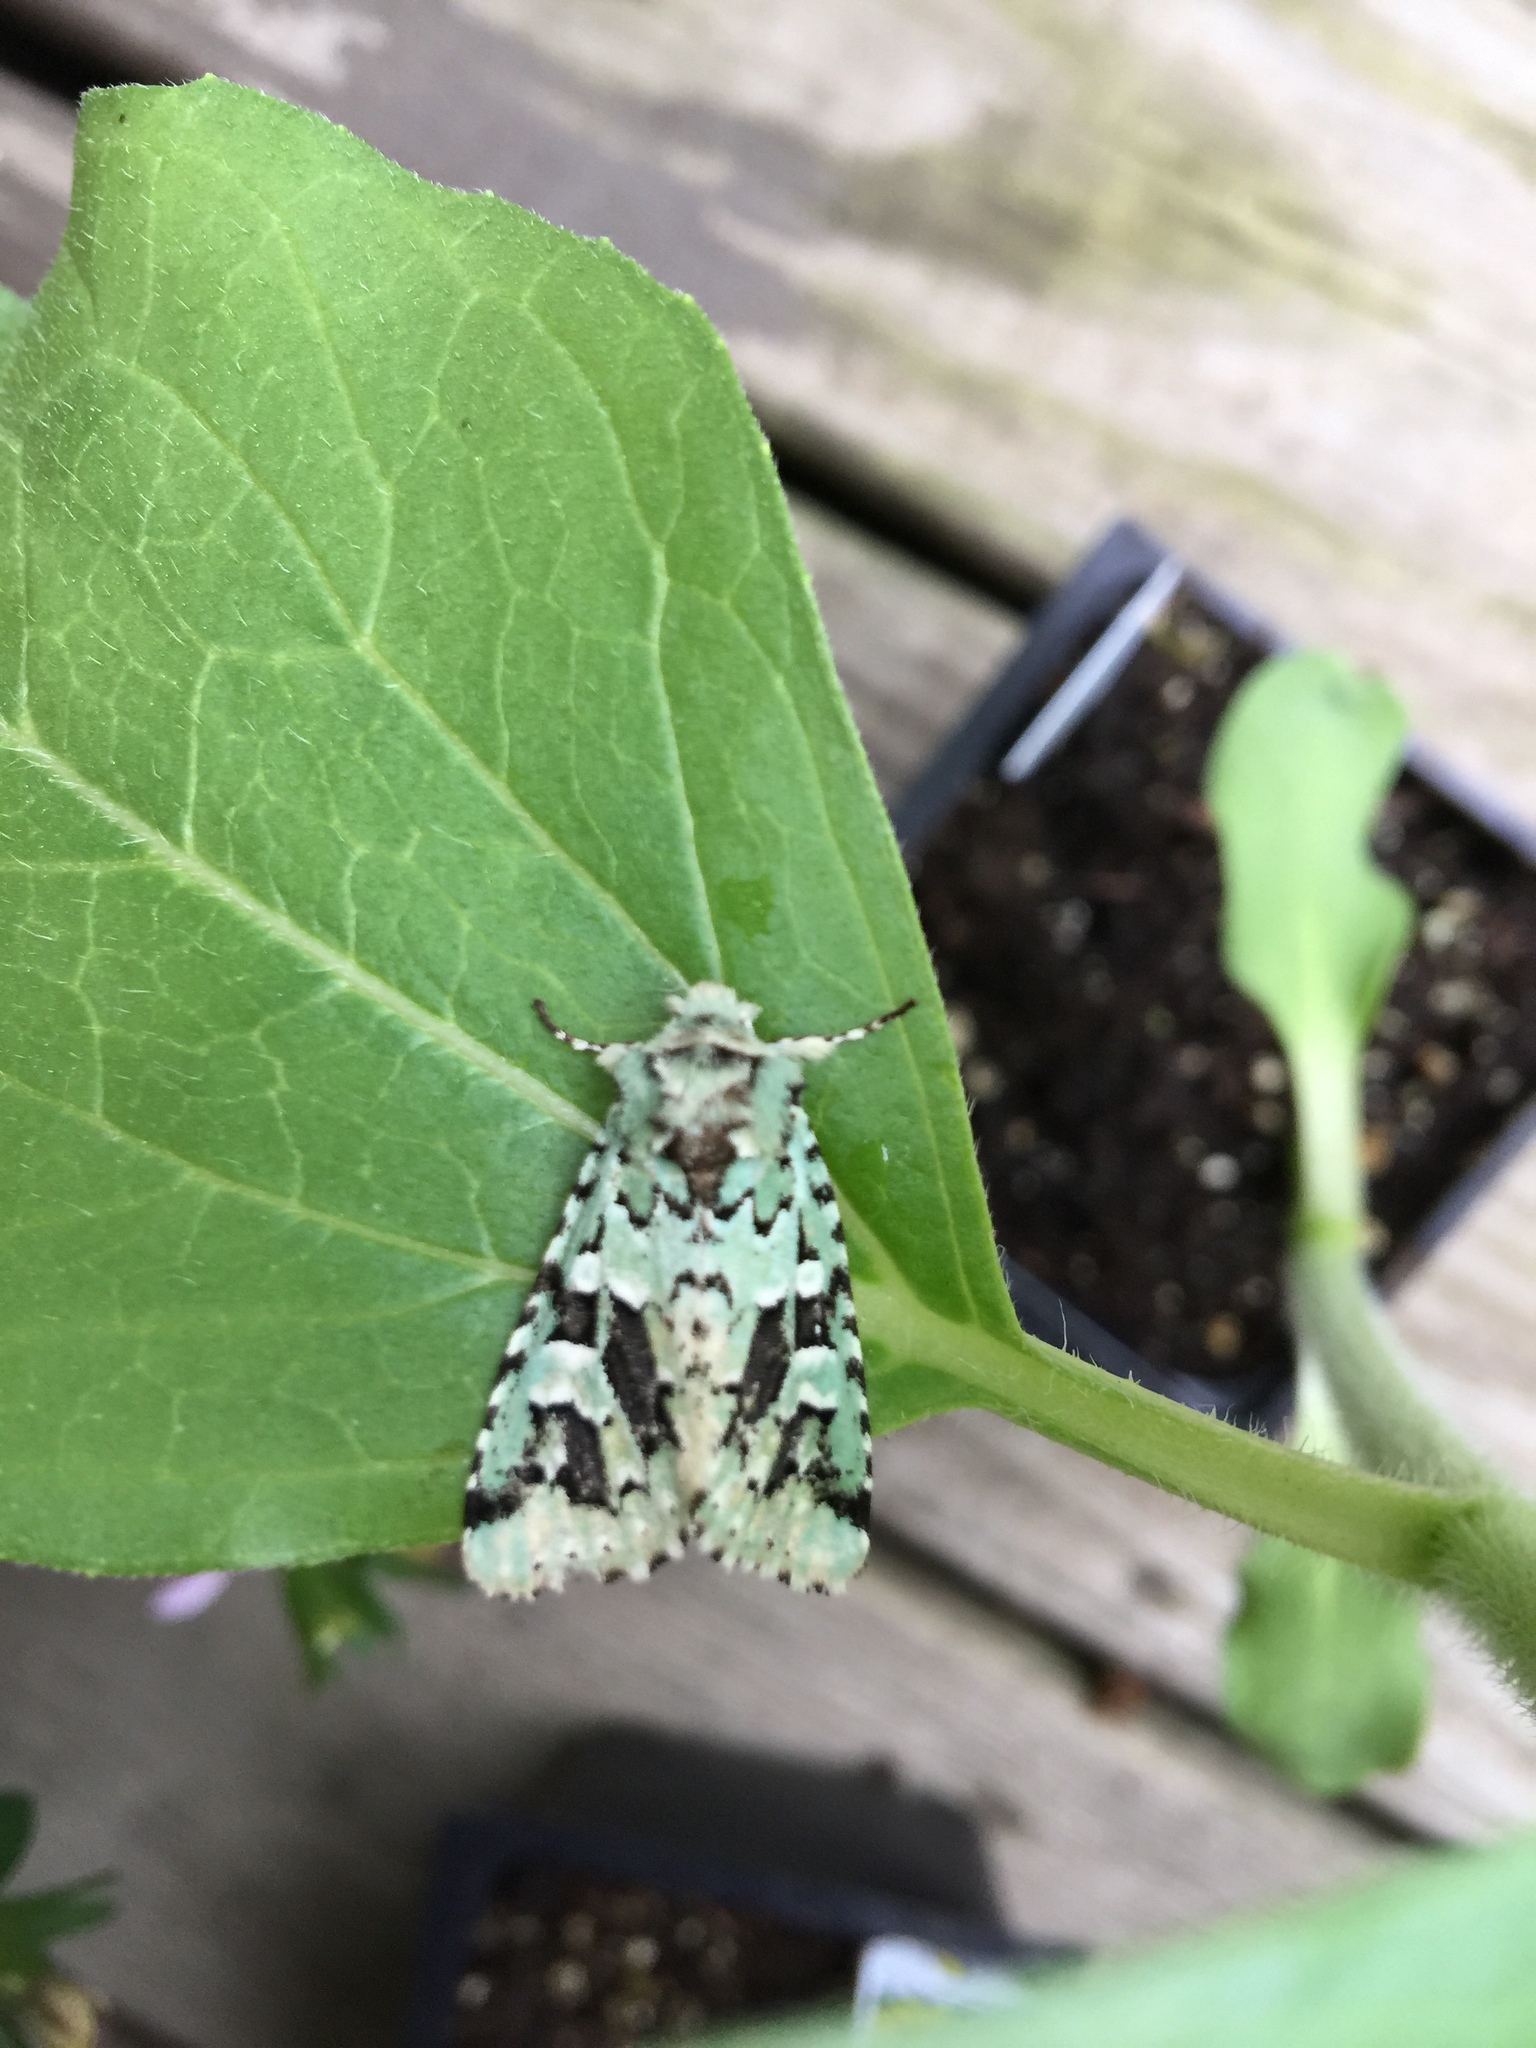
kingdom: Animalia
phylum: Arthropoda
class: Insecta
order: Lepidoptera
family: Noctuidae
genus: Feralia
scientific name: Feralia comstocki
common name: Comstock's sallow
